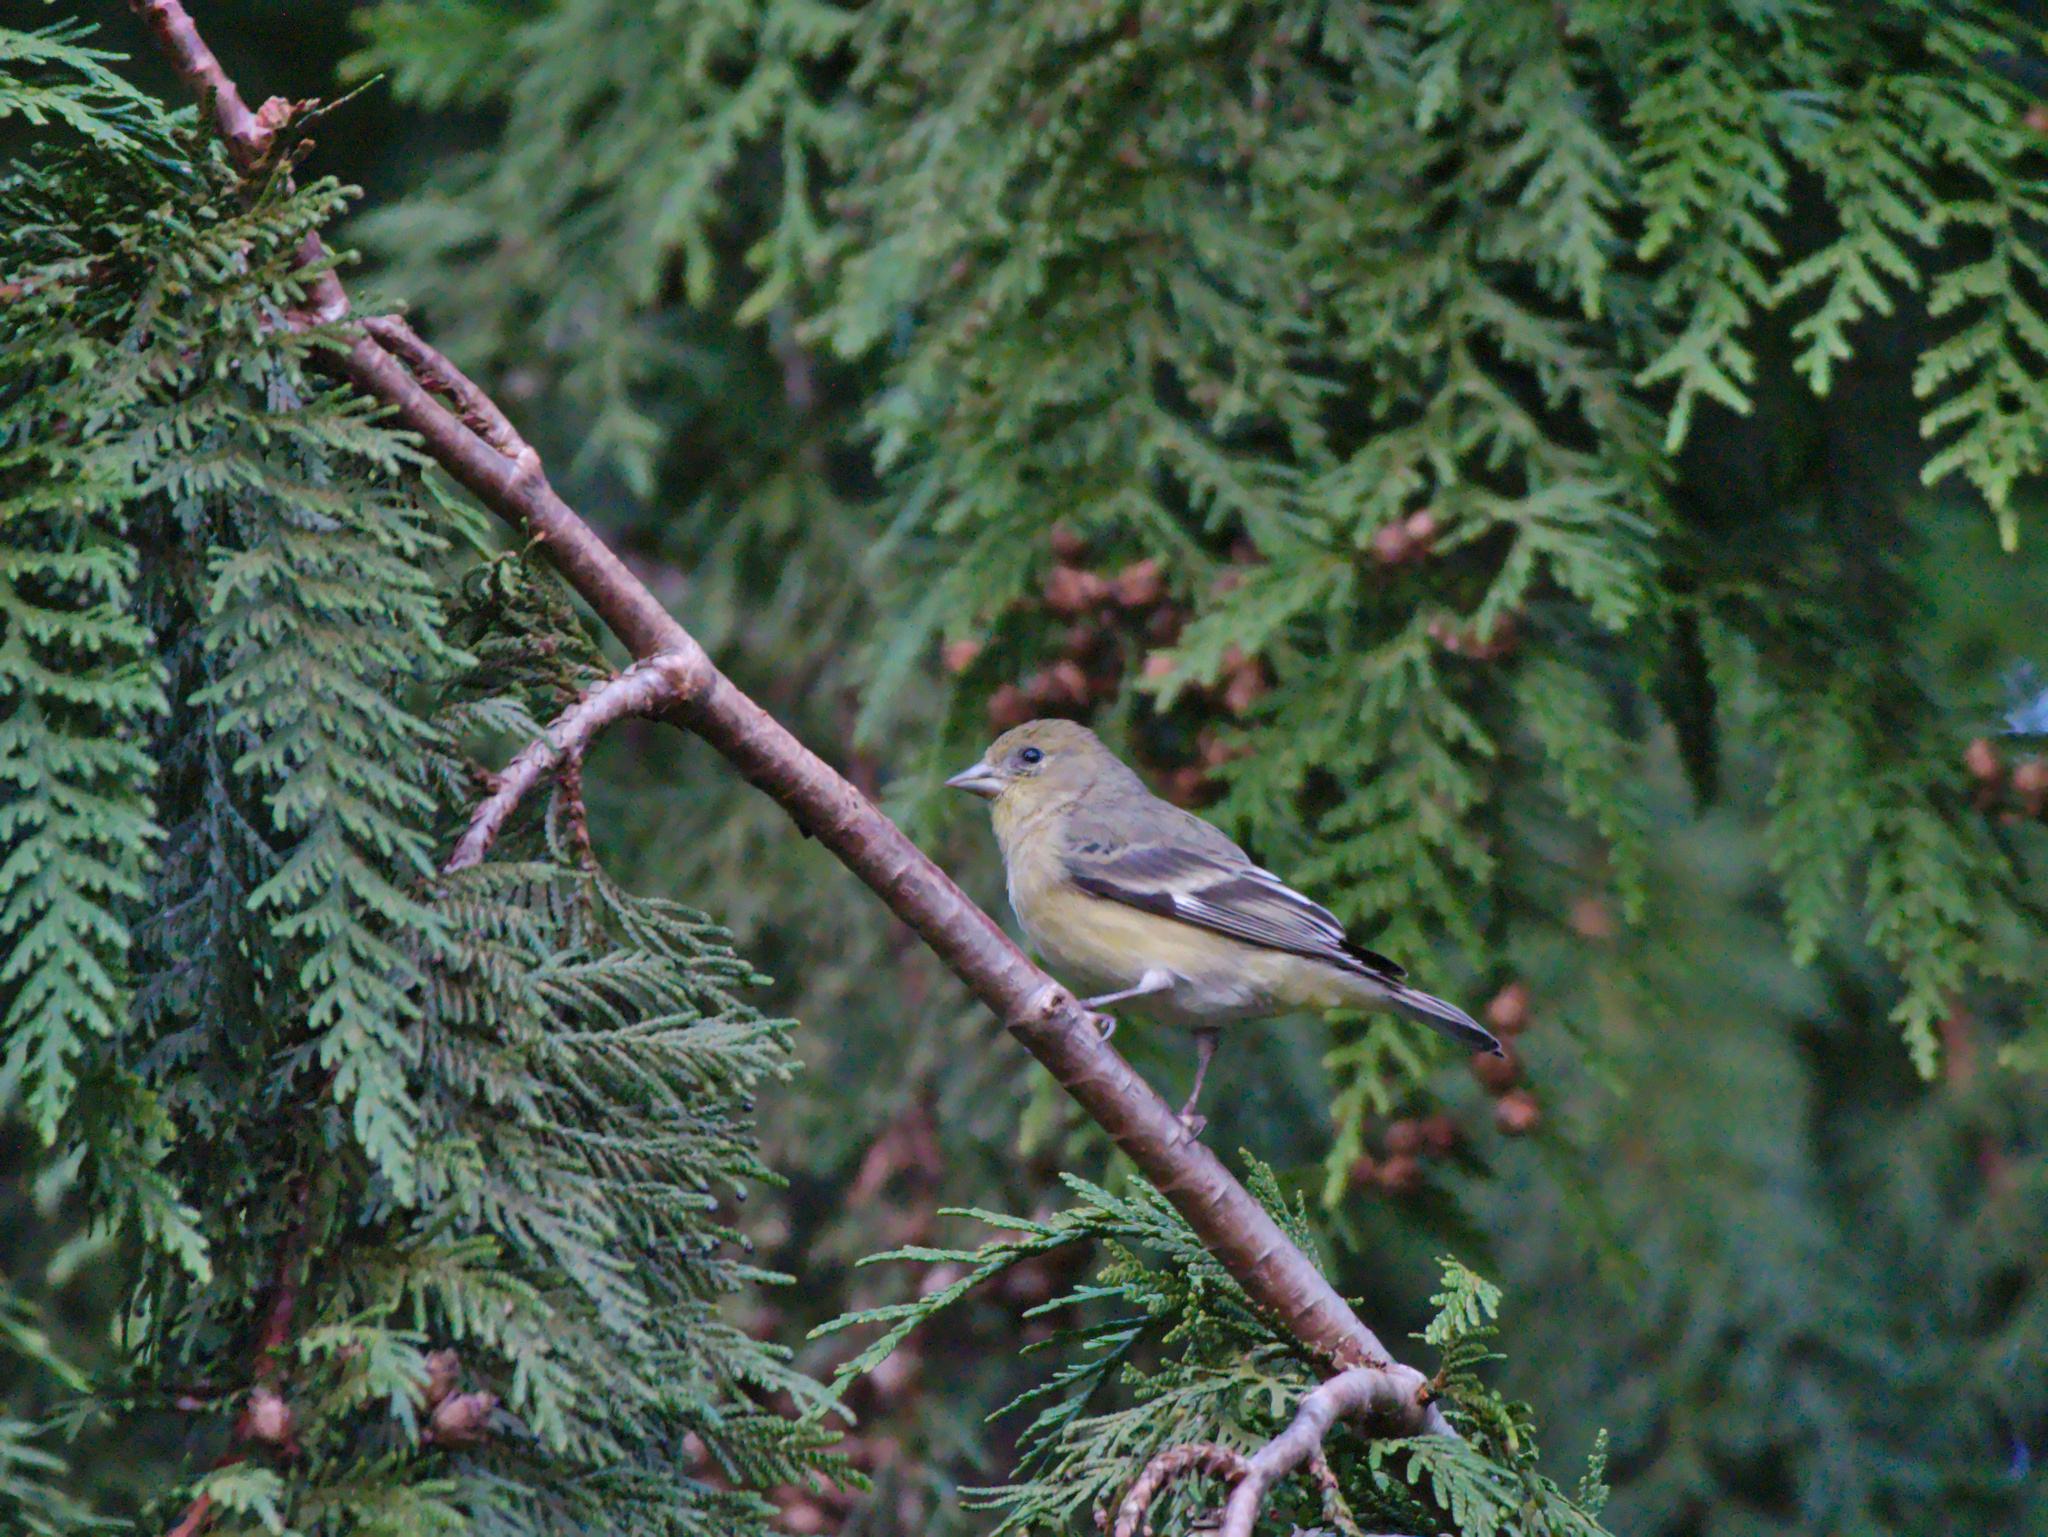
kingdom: Animalia
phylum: Chordata
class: Aves
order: Passeriformes
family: Fringillidae
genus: Spinus
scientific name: Spinus psaltria
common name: Lesser goldfinch
